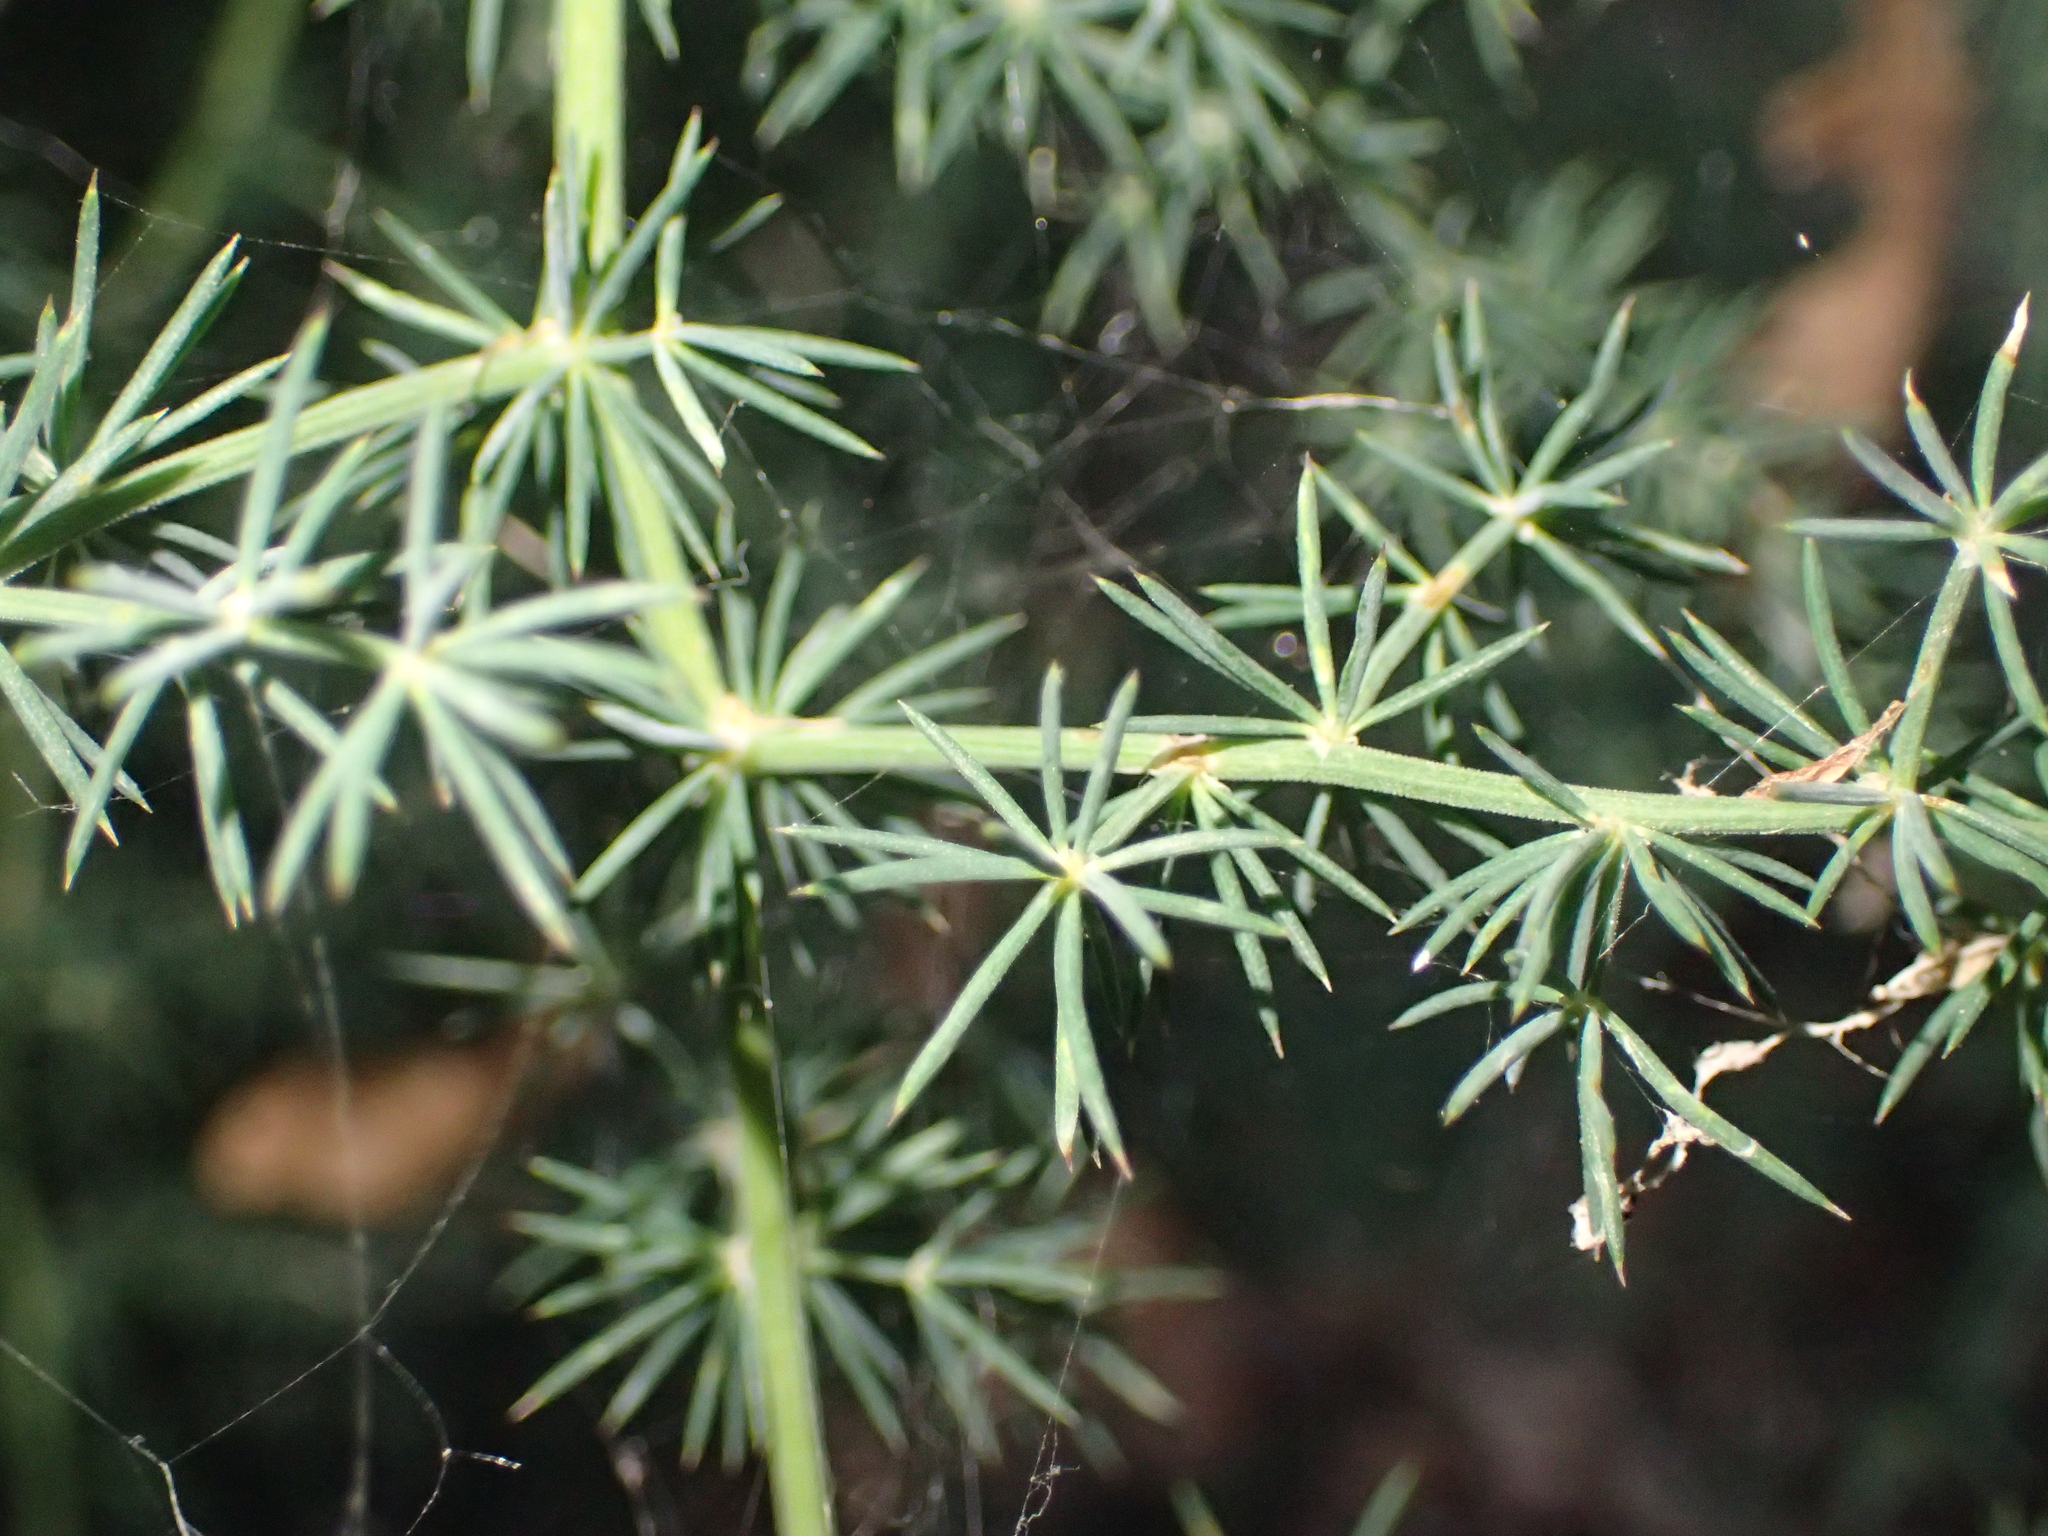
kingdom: Plantae
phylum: Tracheophyta
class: Liliopsida
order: Asparagales
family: Asparagaceae
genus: Asparagus
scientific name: Asparagus acutifolius
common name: Wild asparagus
